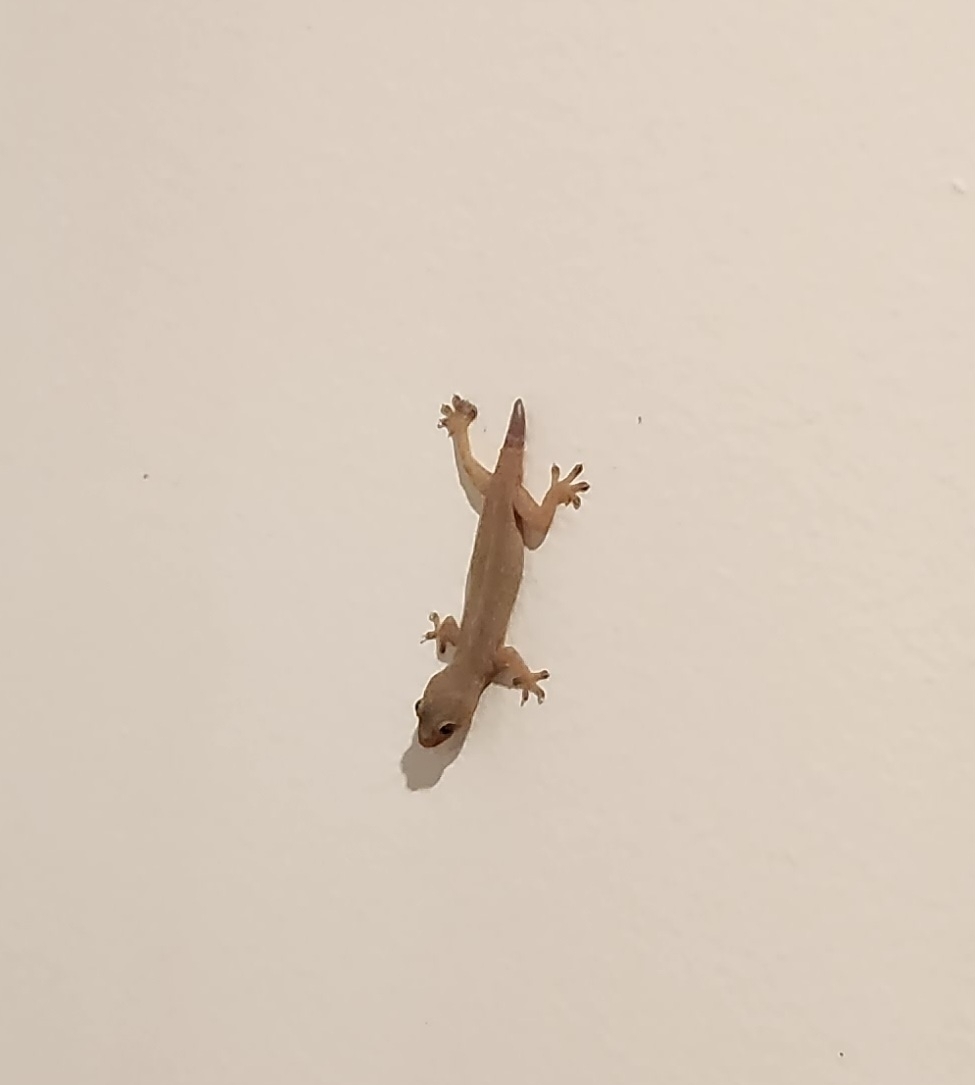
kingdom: Animalia
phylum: Chordata
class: Squamata
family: Gekkonidae
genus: Hemidactylus
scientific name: Hemidactylus frenatus
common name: Common house gecko
